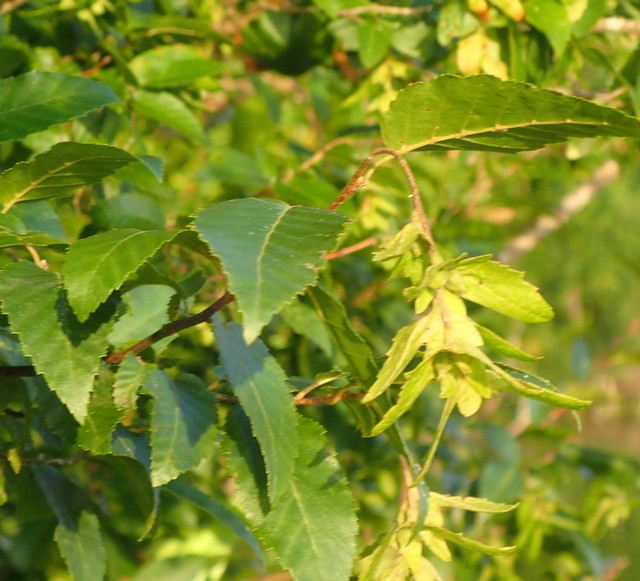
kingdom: Plantae
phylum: Tracheophyta
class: Magnoliopsida
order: Fagales
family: Betulaceae
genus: Carpinus
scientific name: Carpinus caroliniana
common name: American hornbeam
